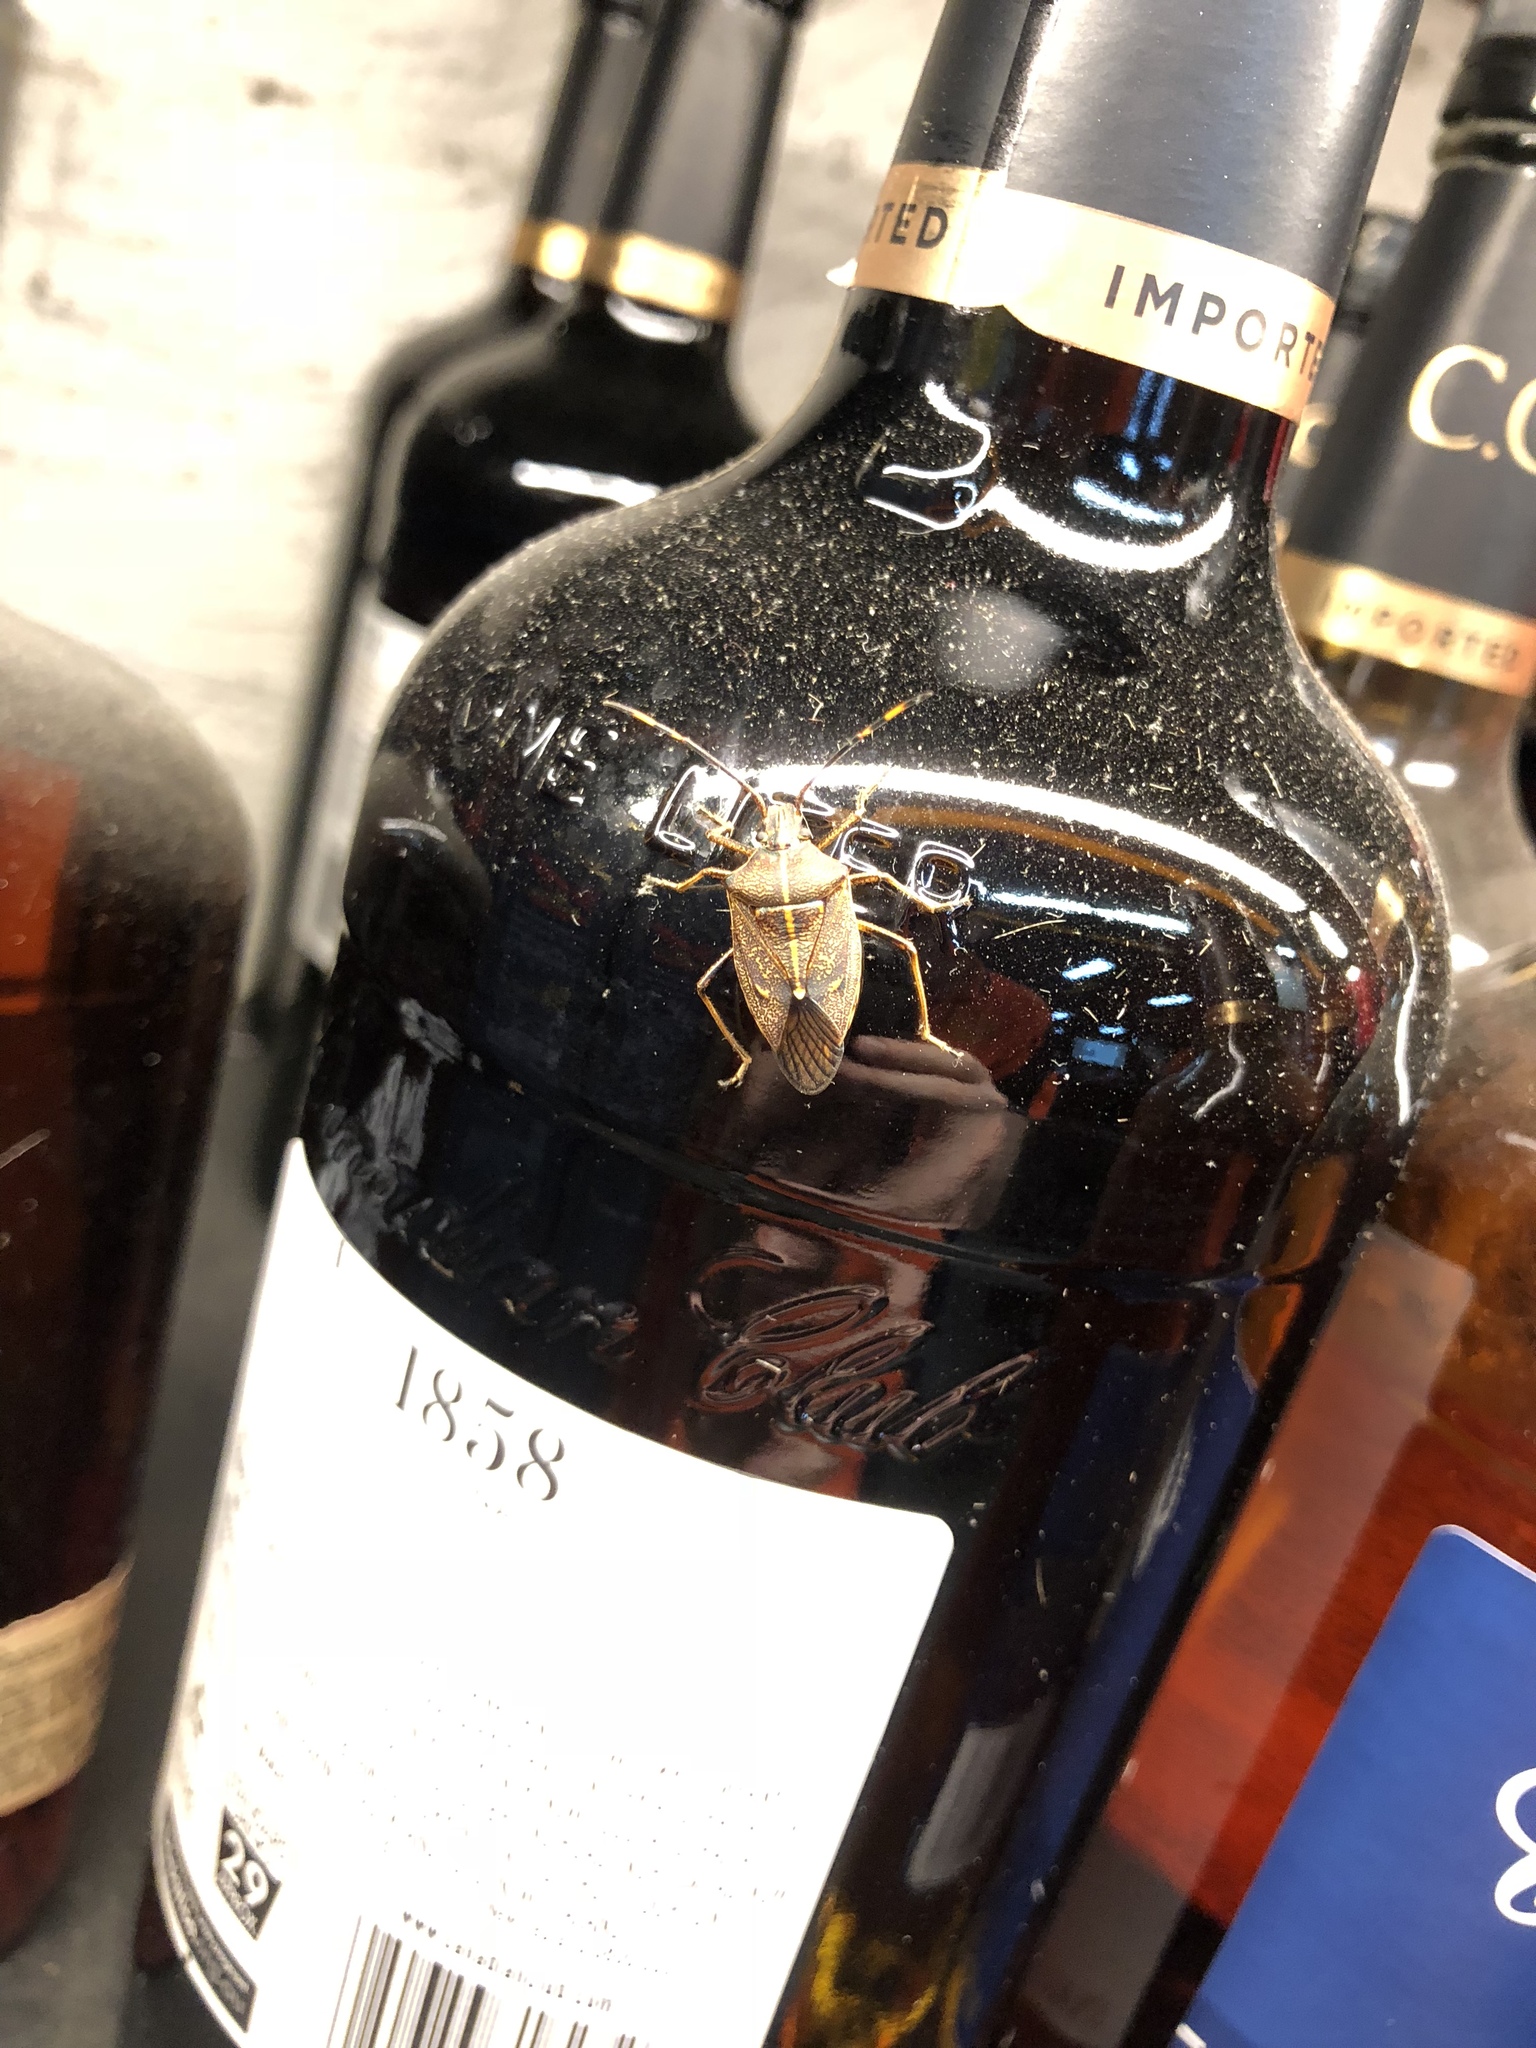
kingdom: Animalia
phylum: Arthropoda
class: Insecta
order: Hemiptera
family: Pentatomidae
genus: Omyta
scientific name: Omyta centrolineata
